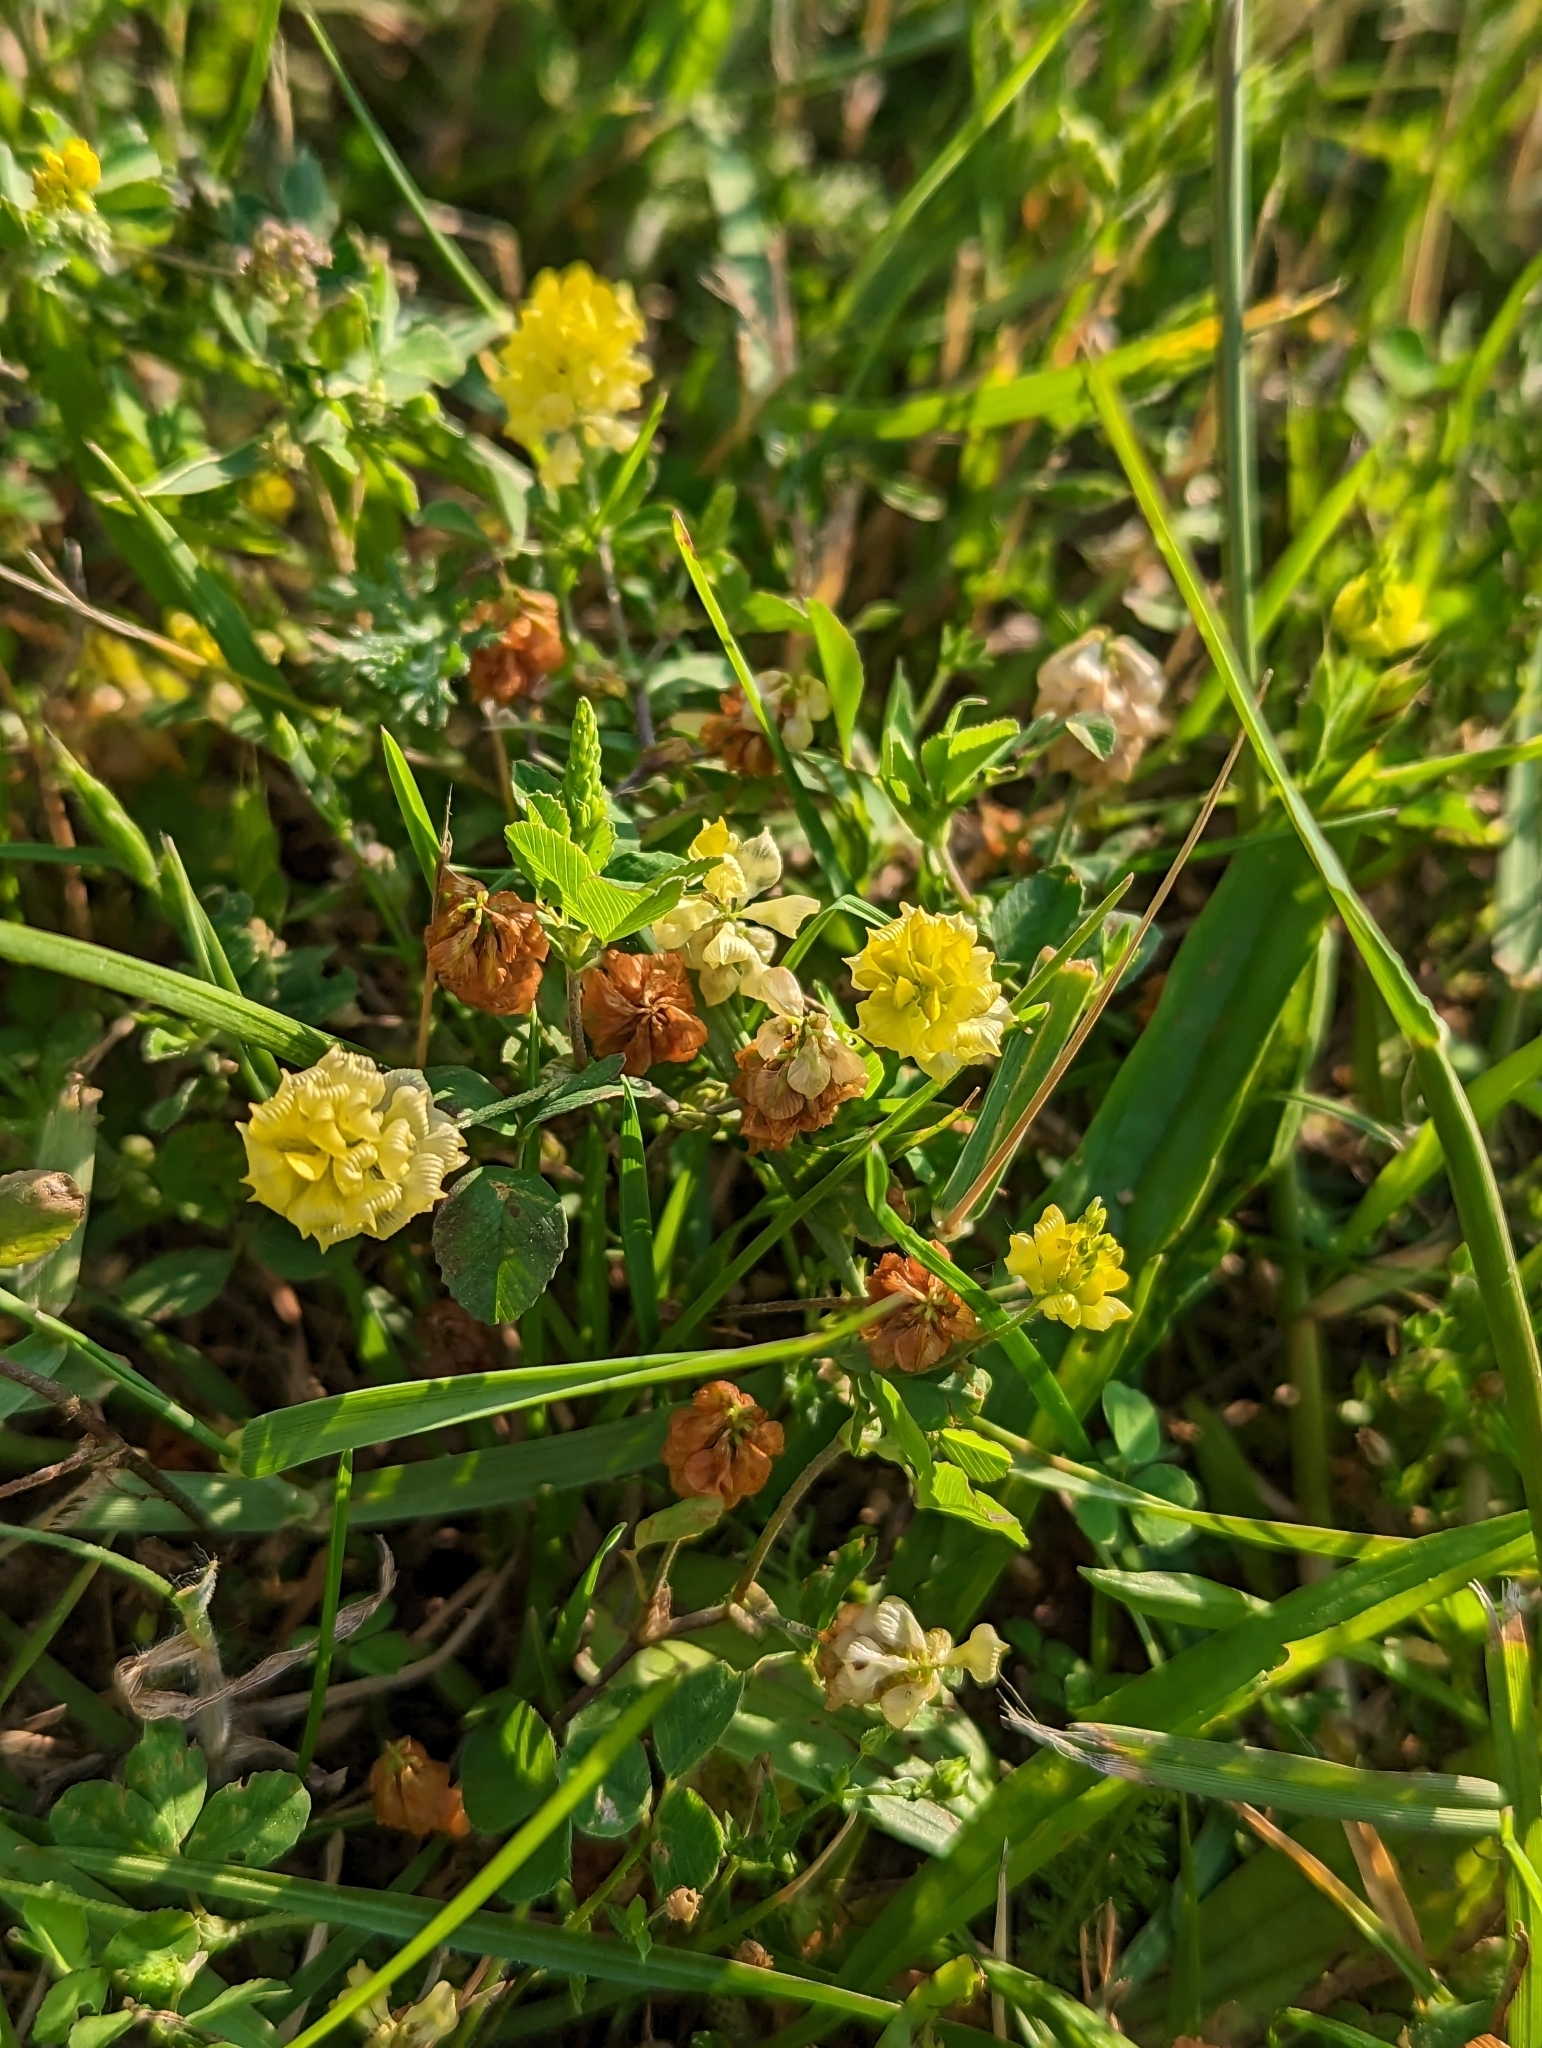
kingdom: Plantae
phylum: Tracheophyta
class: Magnoliopsida
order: Fabales
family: Fabaceae
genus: Trifolium
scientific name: Trifolium campestre
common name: Field clover
